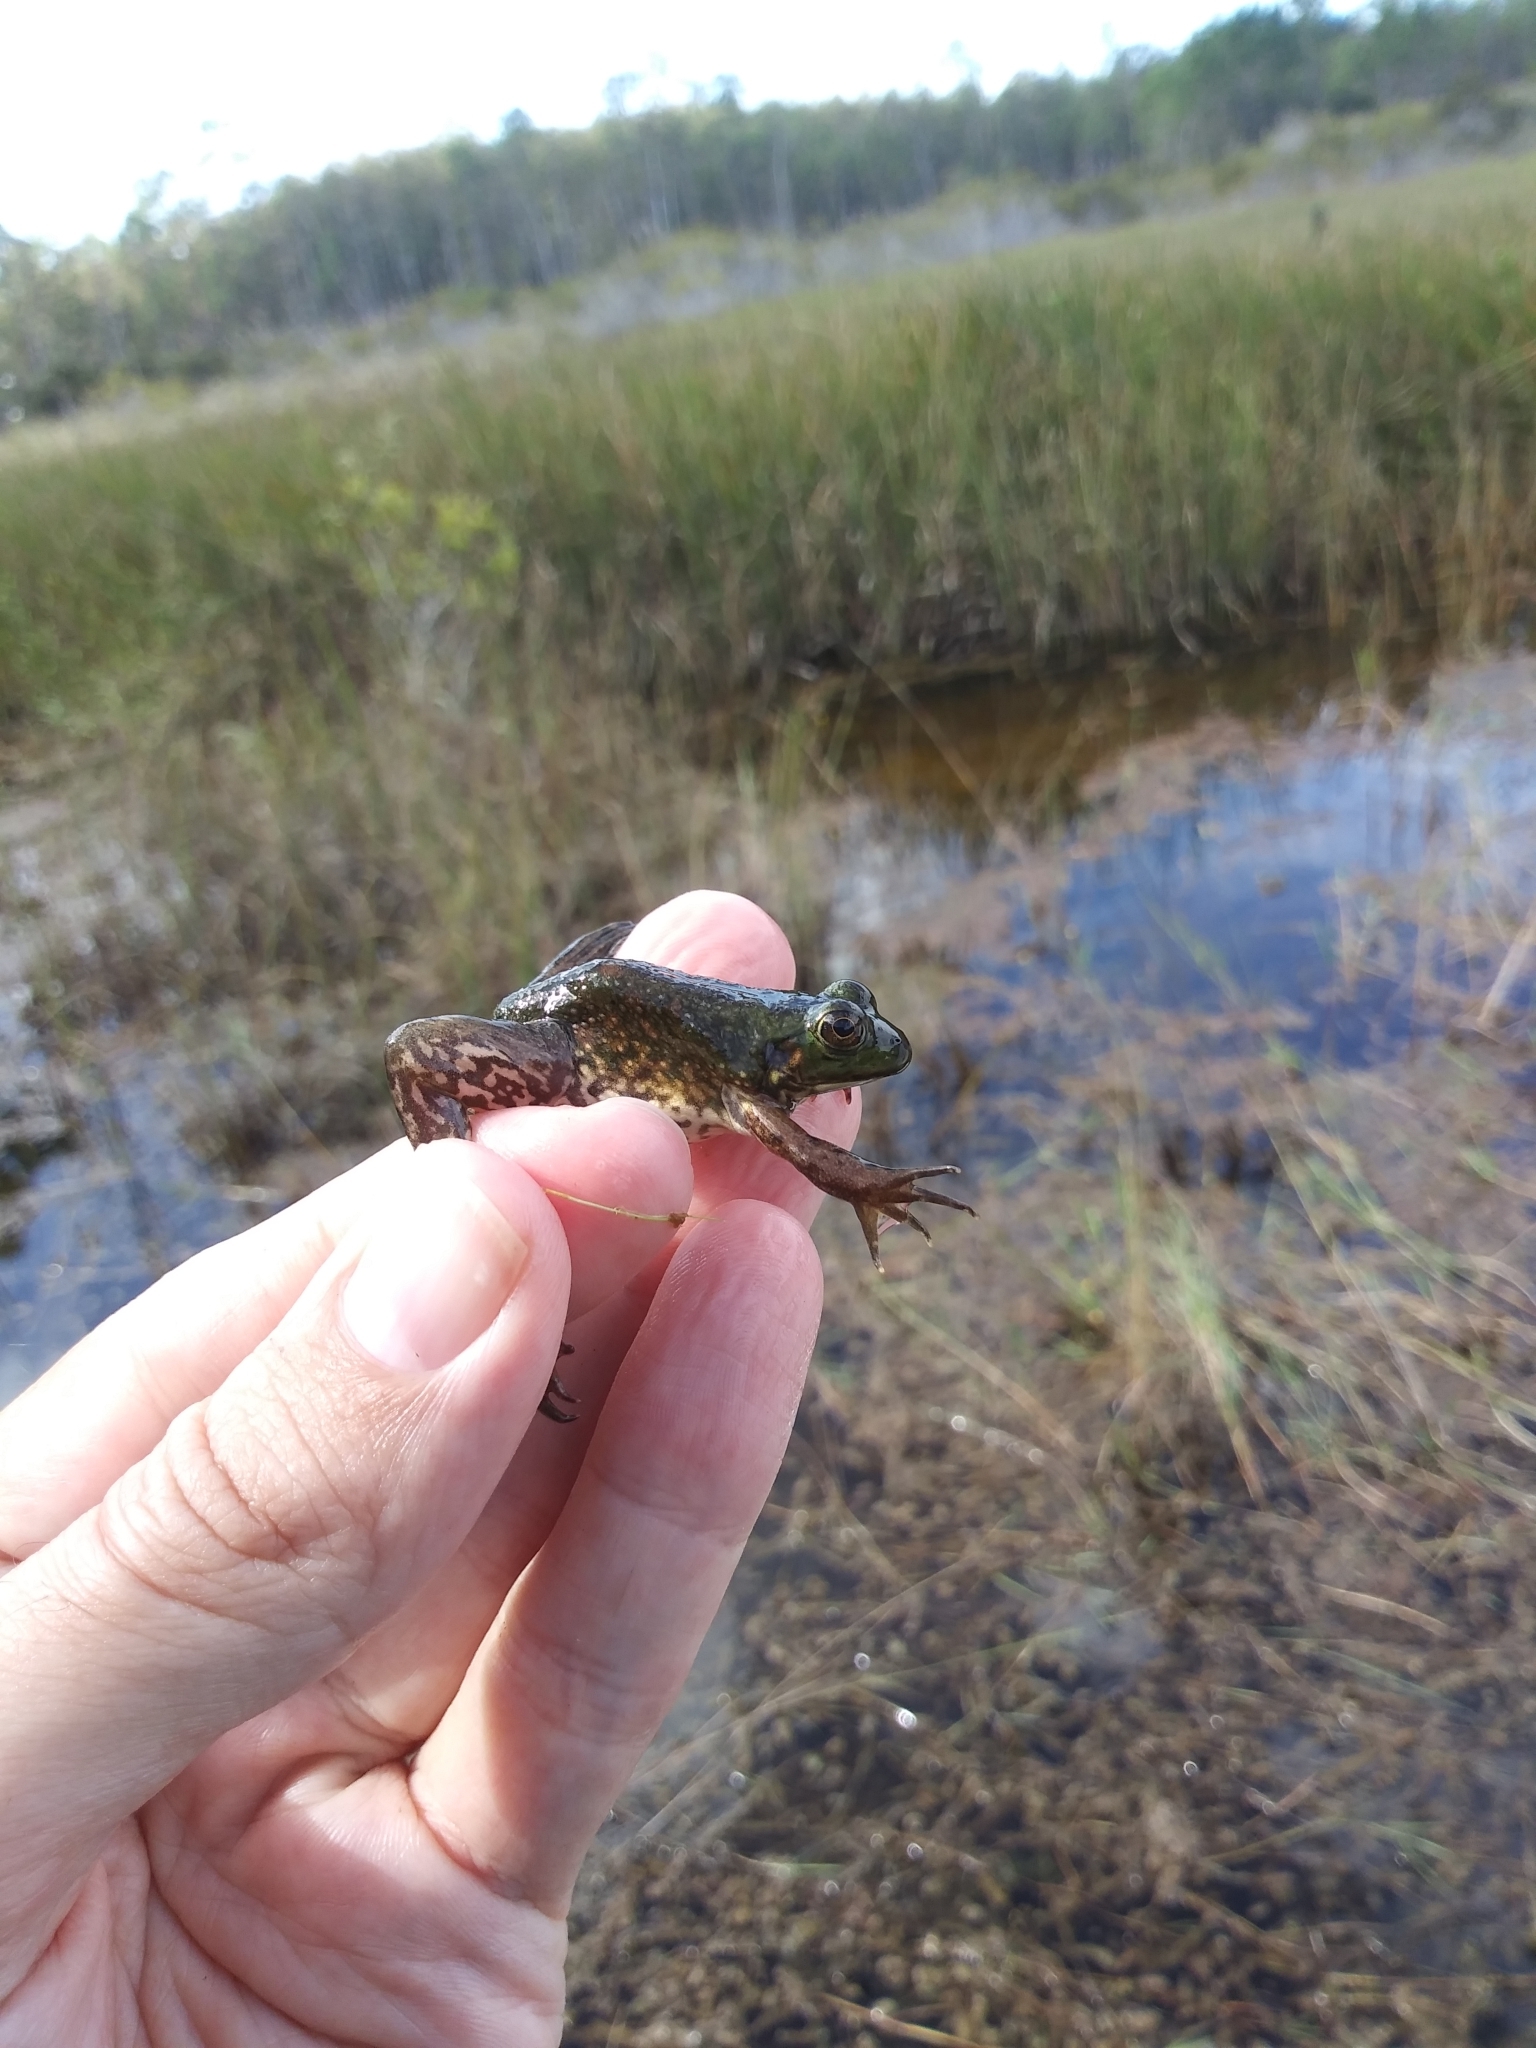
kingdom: Animalia
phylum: Chordata
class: Amphibia
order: Anura
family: Ranidae
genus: Lithobates
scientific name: Lithobates grylio
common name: Pig frog
